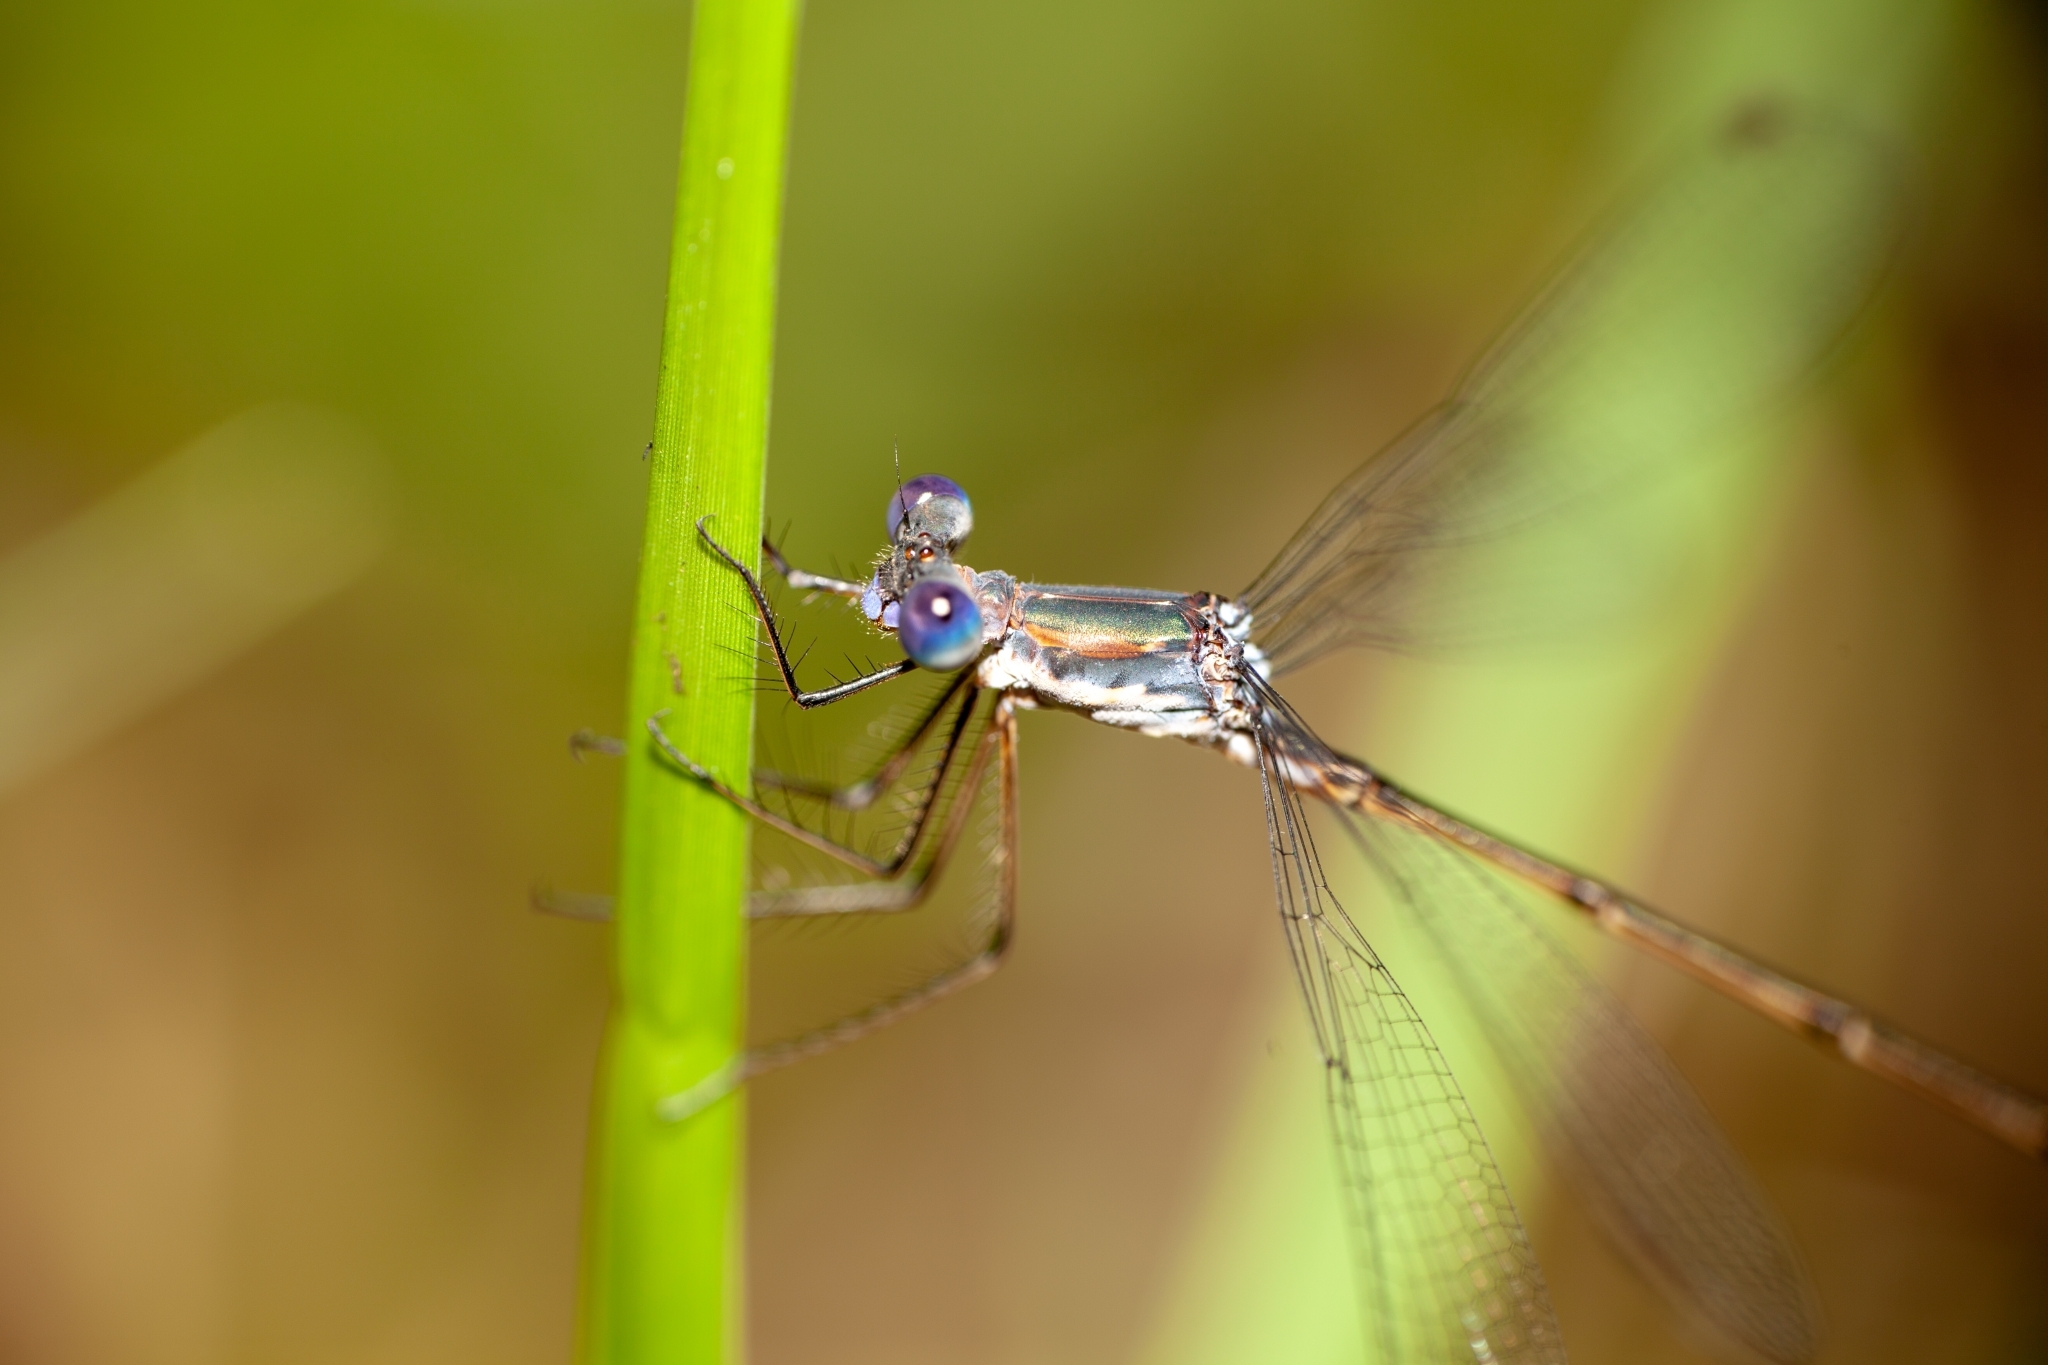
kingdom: Animalia
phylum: Arthropoda
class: Insecta
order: Odonata
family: Lestidae
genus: Lestes
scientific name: Lestes vidua
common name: Carolina spreadwing
